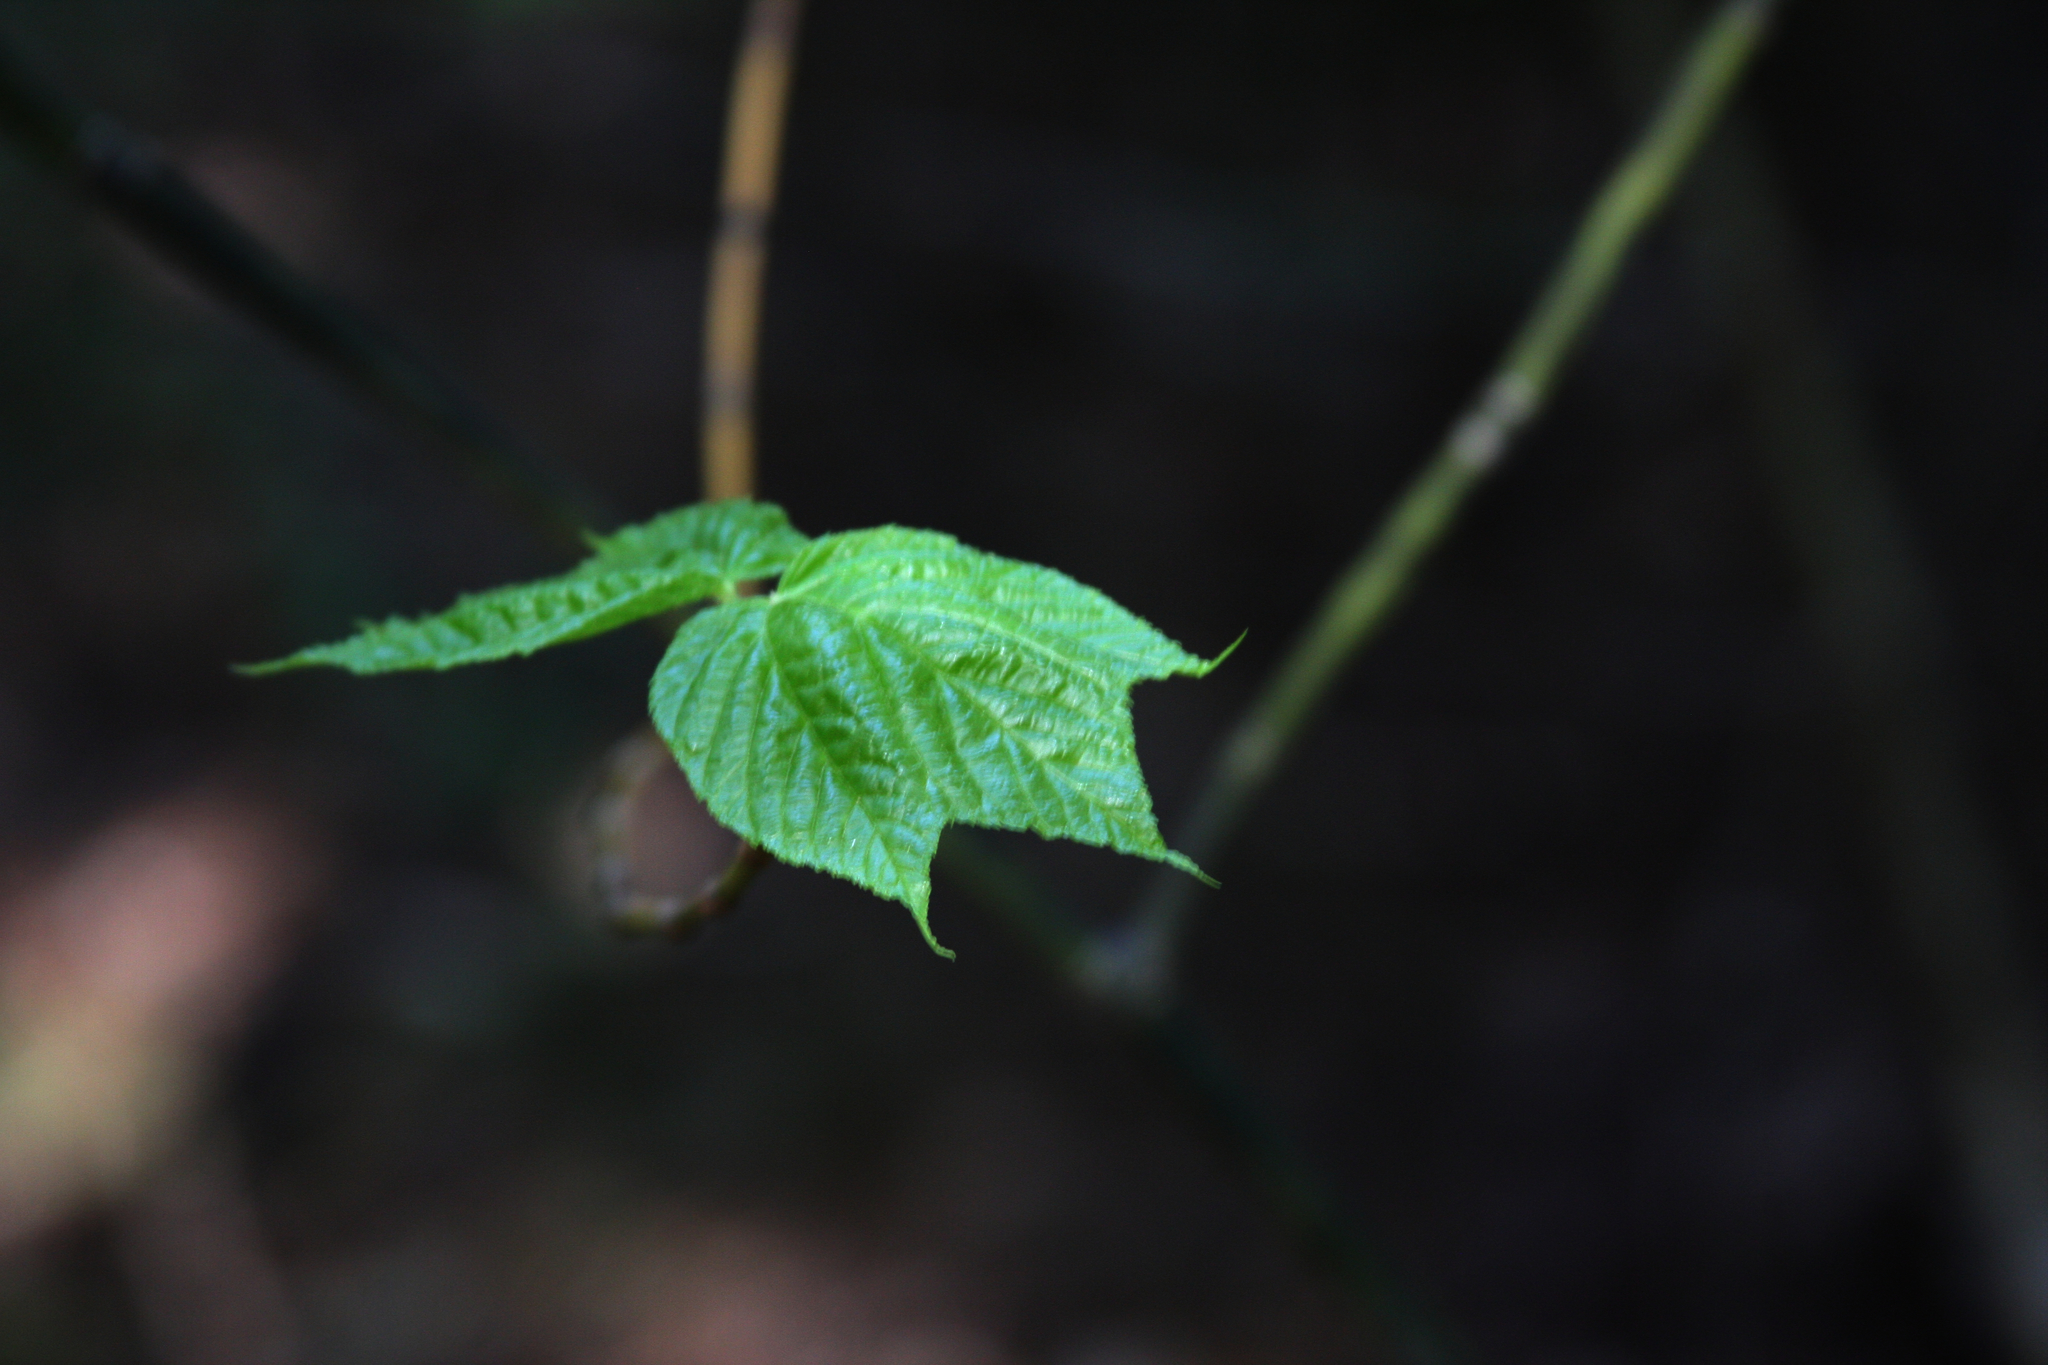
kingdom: Plantae
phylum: Tracheophyta
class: Magnoliopsida
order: Sapindales
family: Sapindaceae
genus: Acer
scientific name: Acer pensylvanicum
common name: Moosewood
